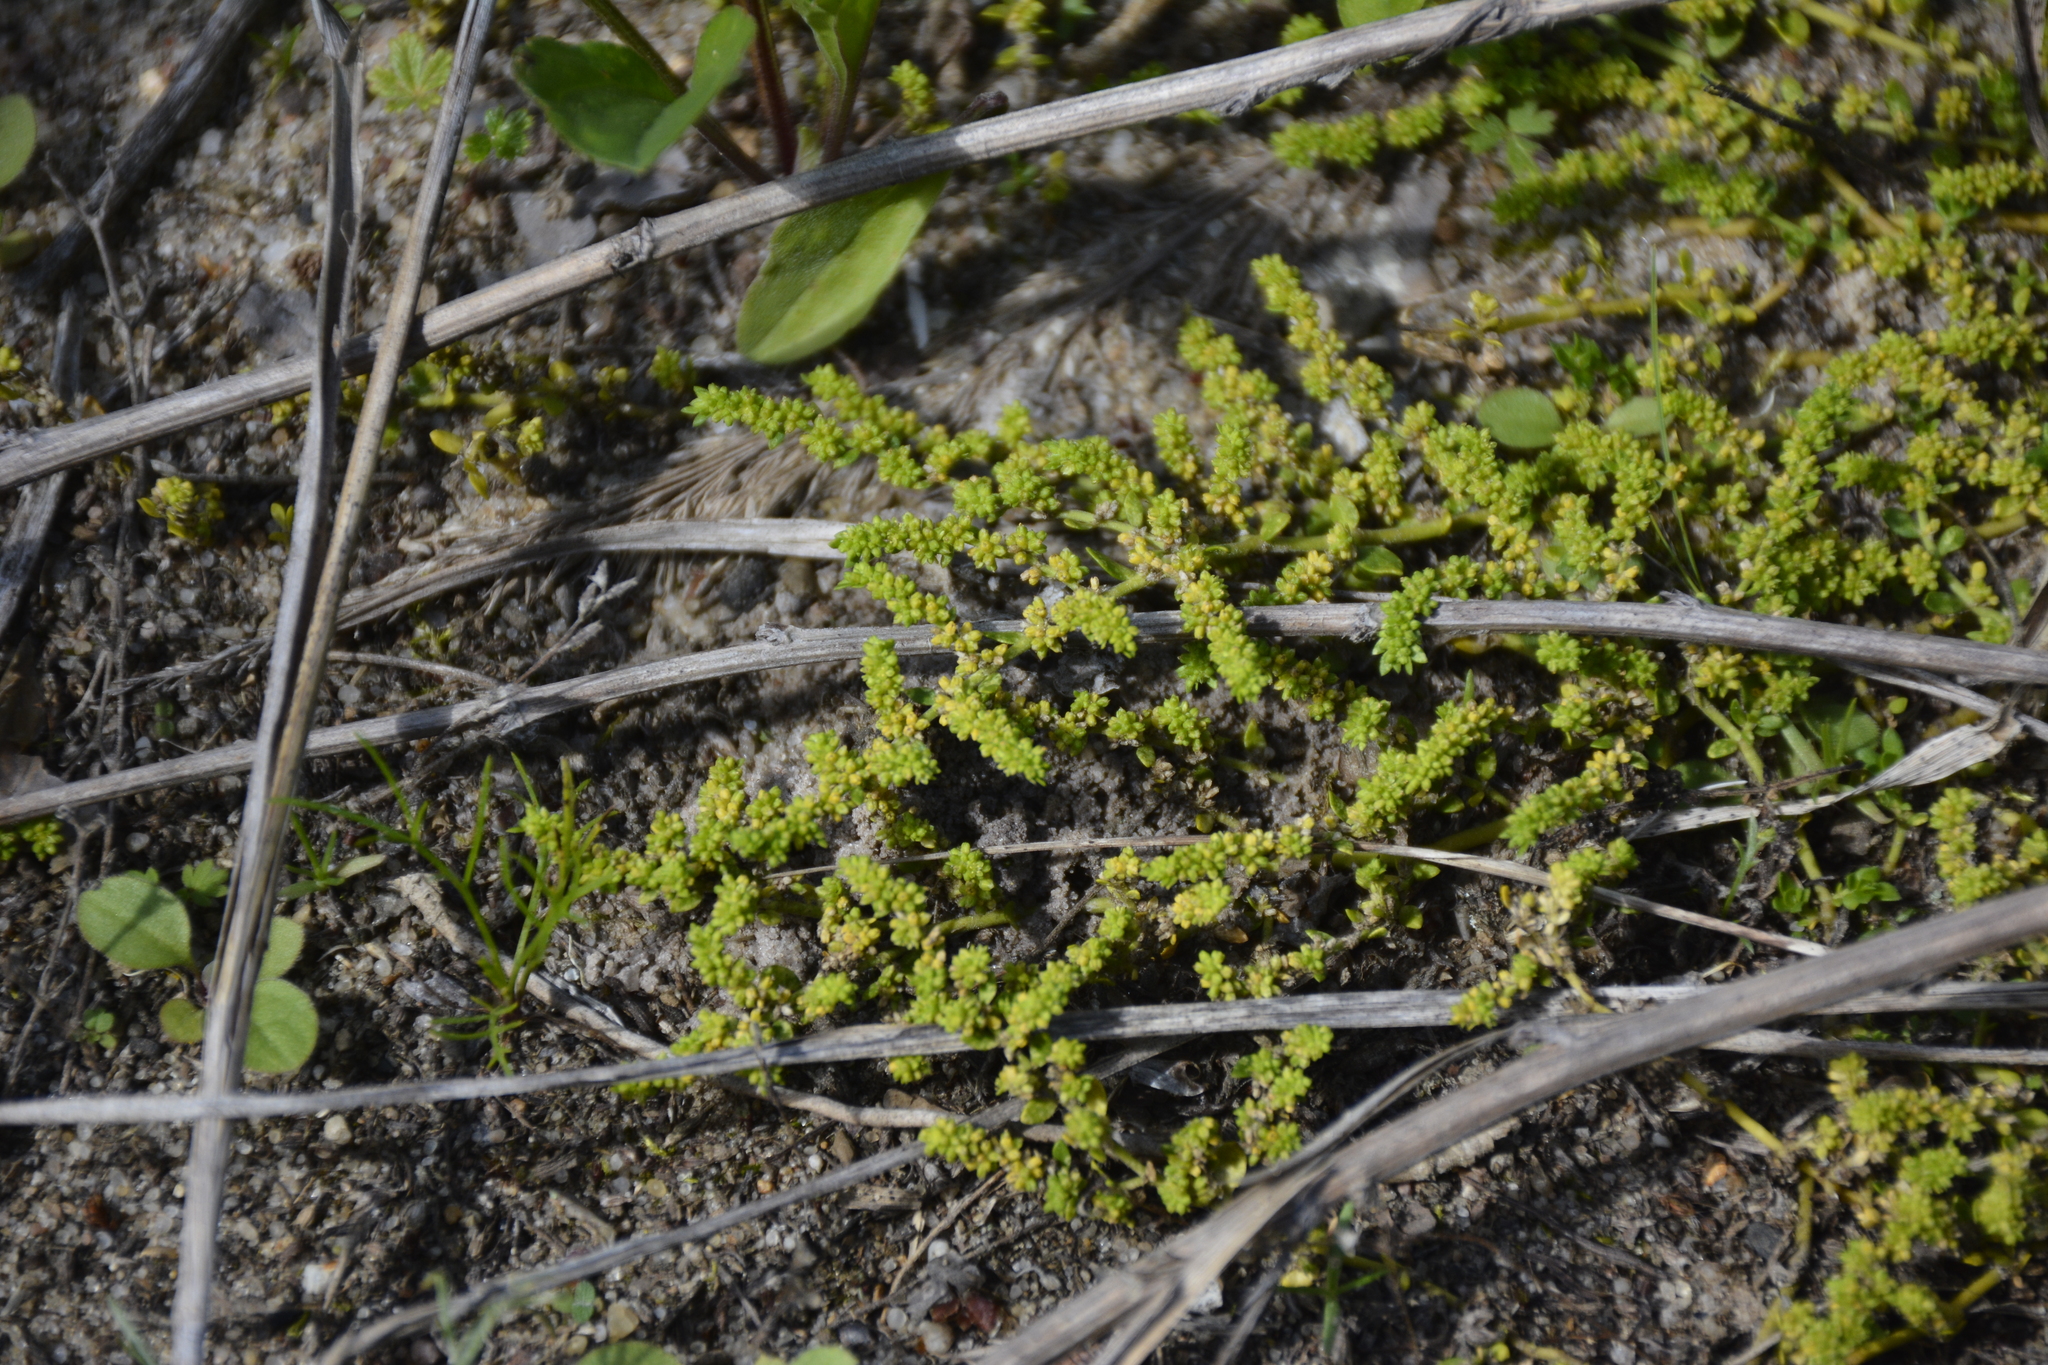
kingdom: Plantae
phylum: Tracheophyta
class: Magnoliopsida
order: Caryophyllales
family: Caryophyllaceae
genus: Herniaria
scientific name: Herniaria glabra
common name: Smooth rupturewort
